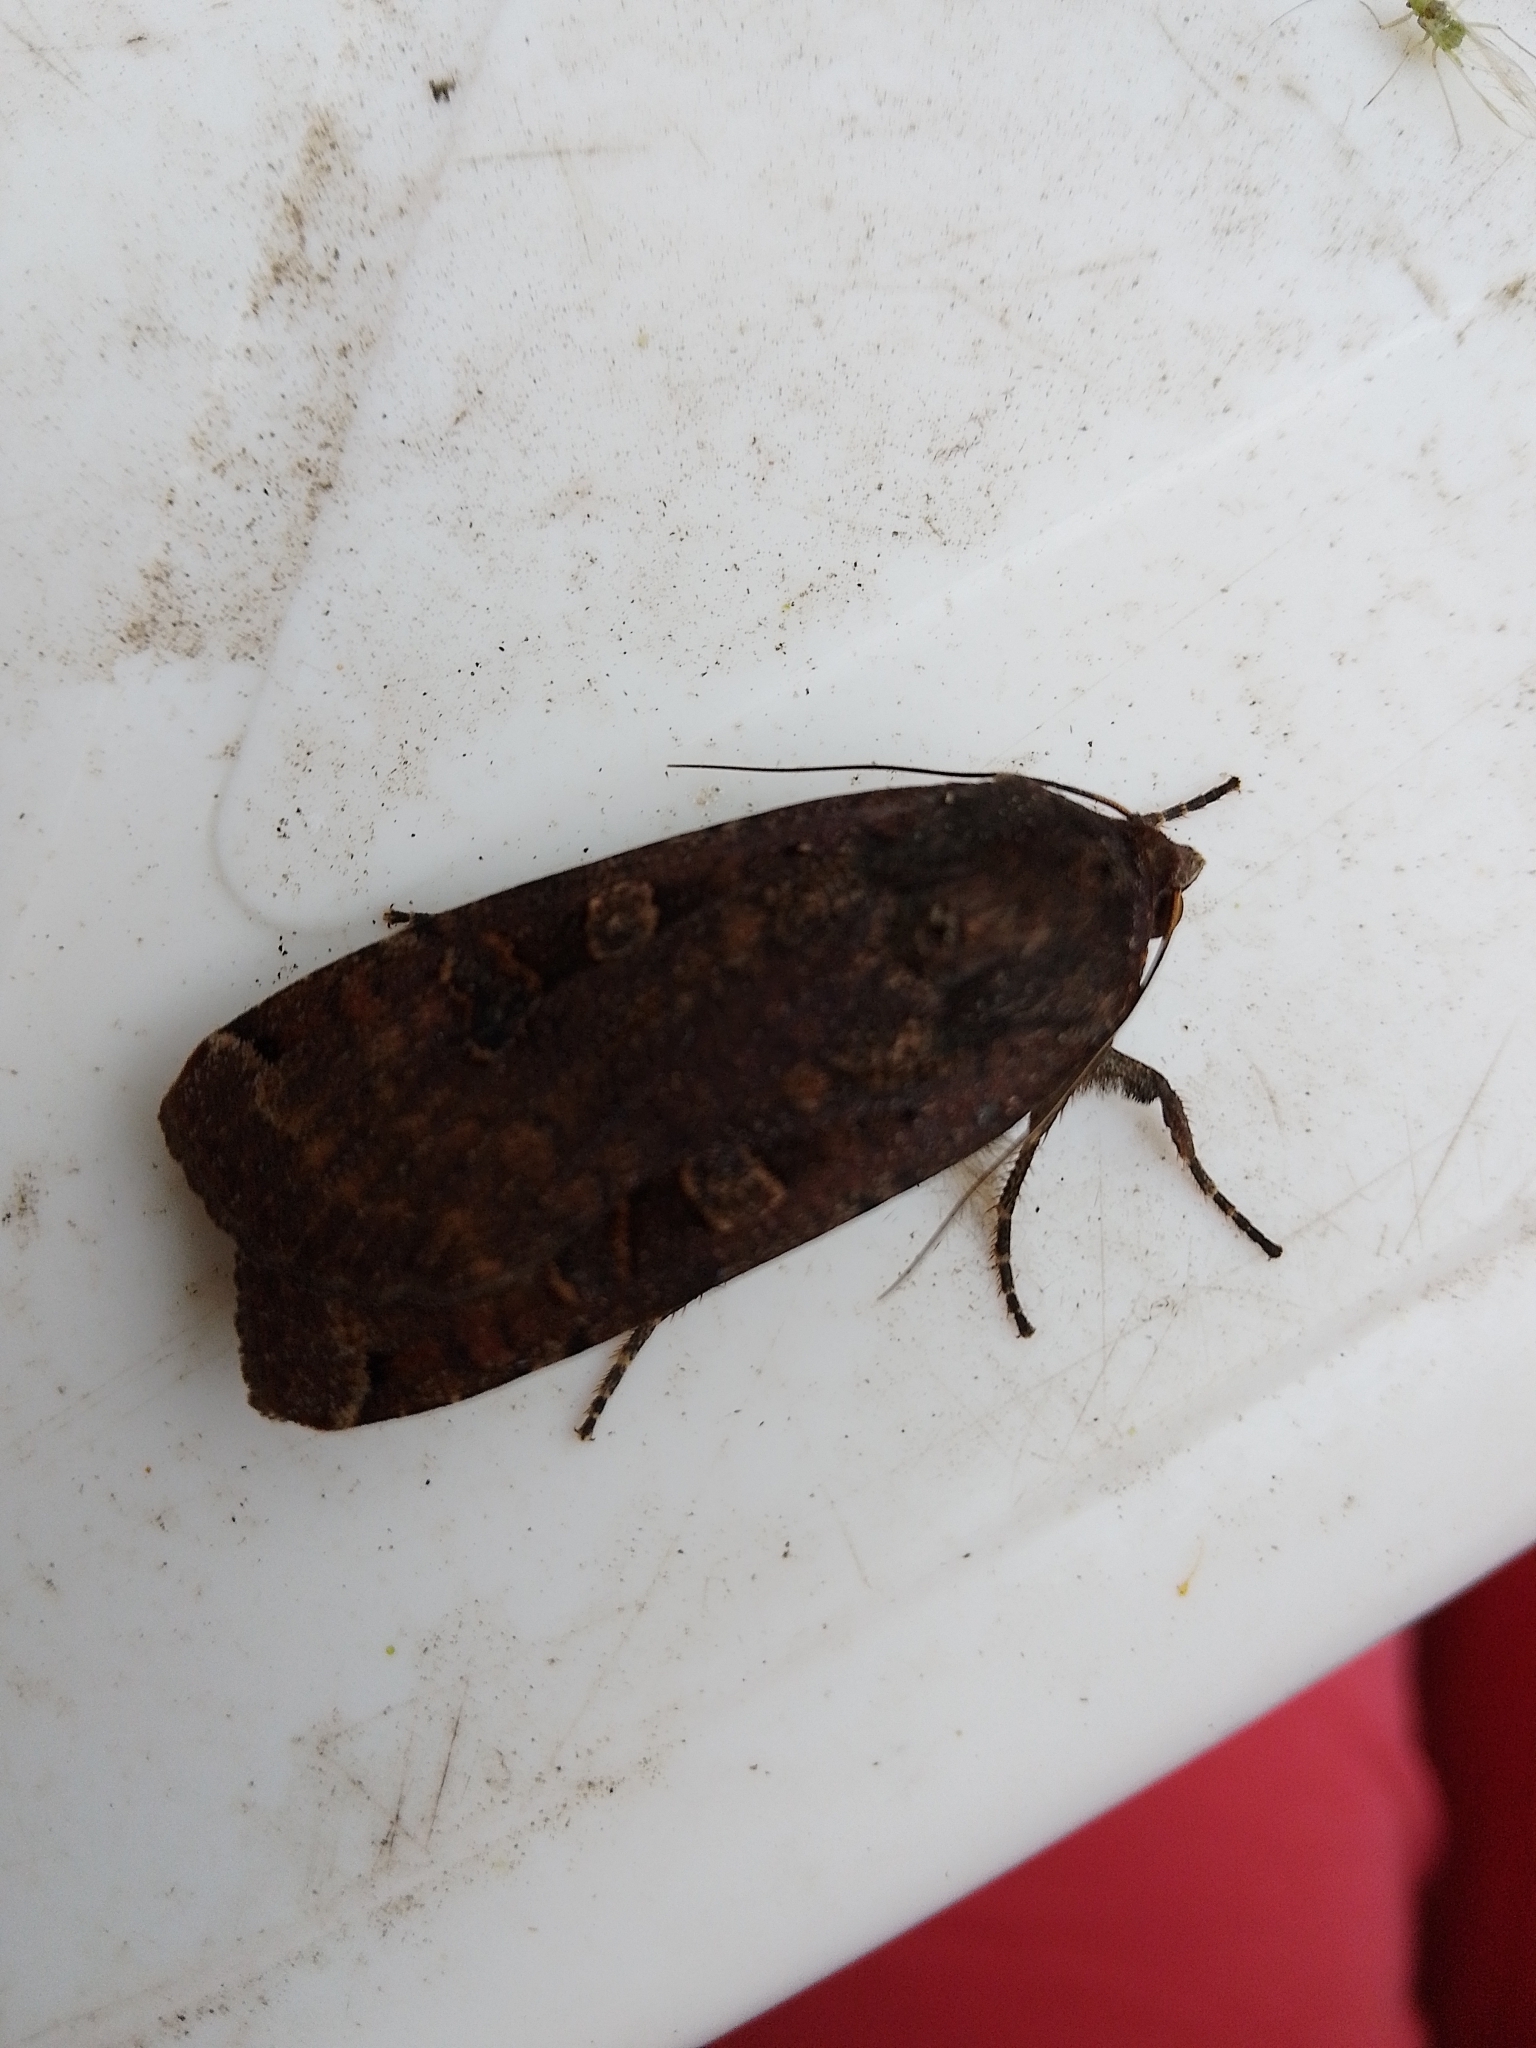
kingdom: Animalia
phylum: Arthropoda
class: Insecta
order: Lepidoptera
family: Noctuidae
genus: Noctua
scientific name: Noctua pronuba
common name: Large yellow underwing
